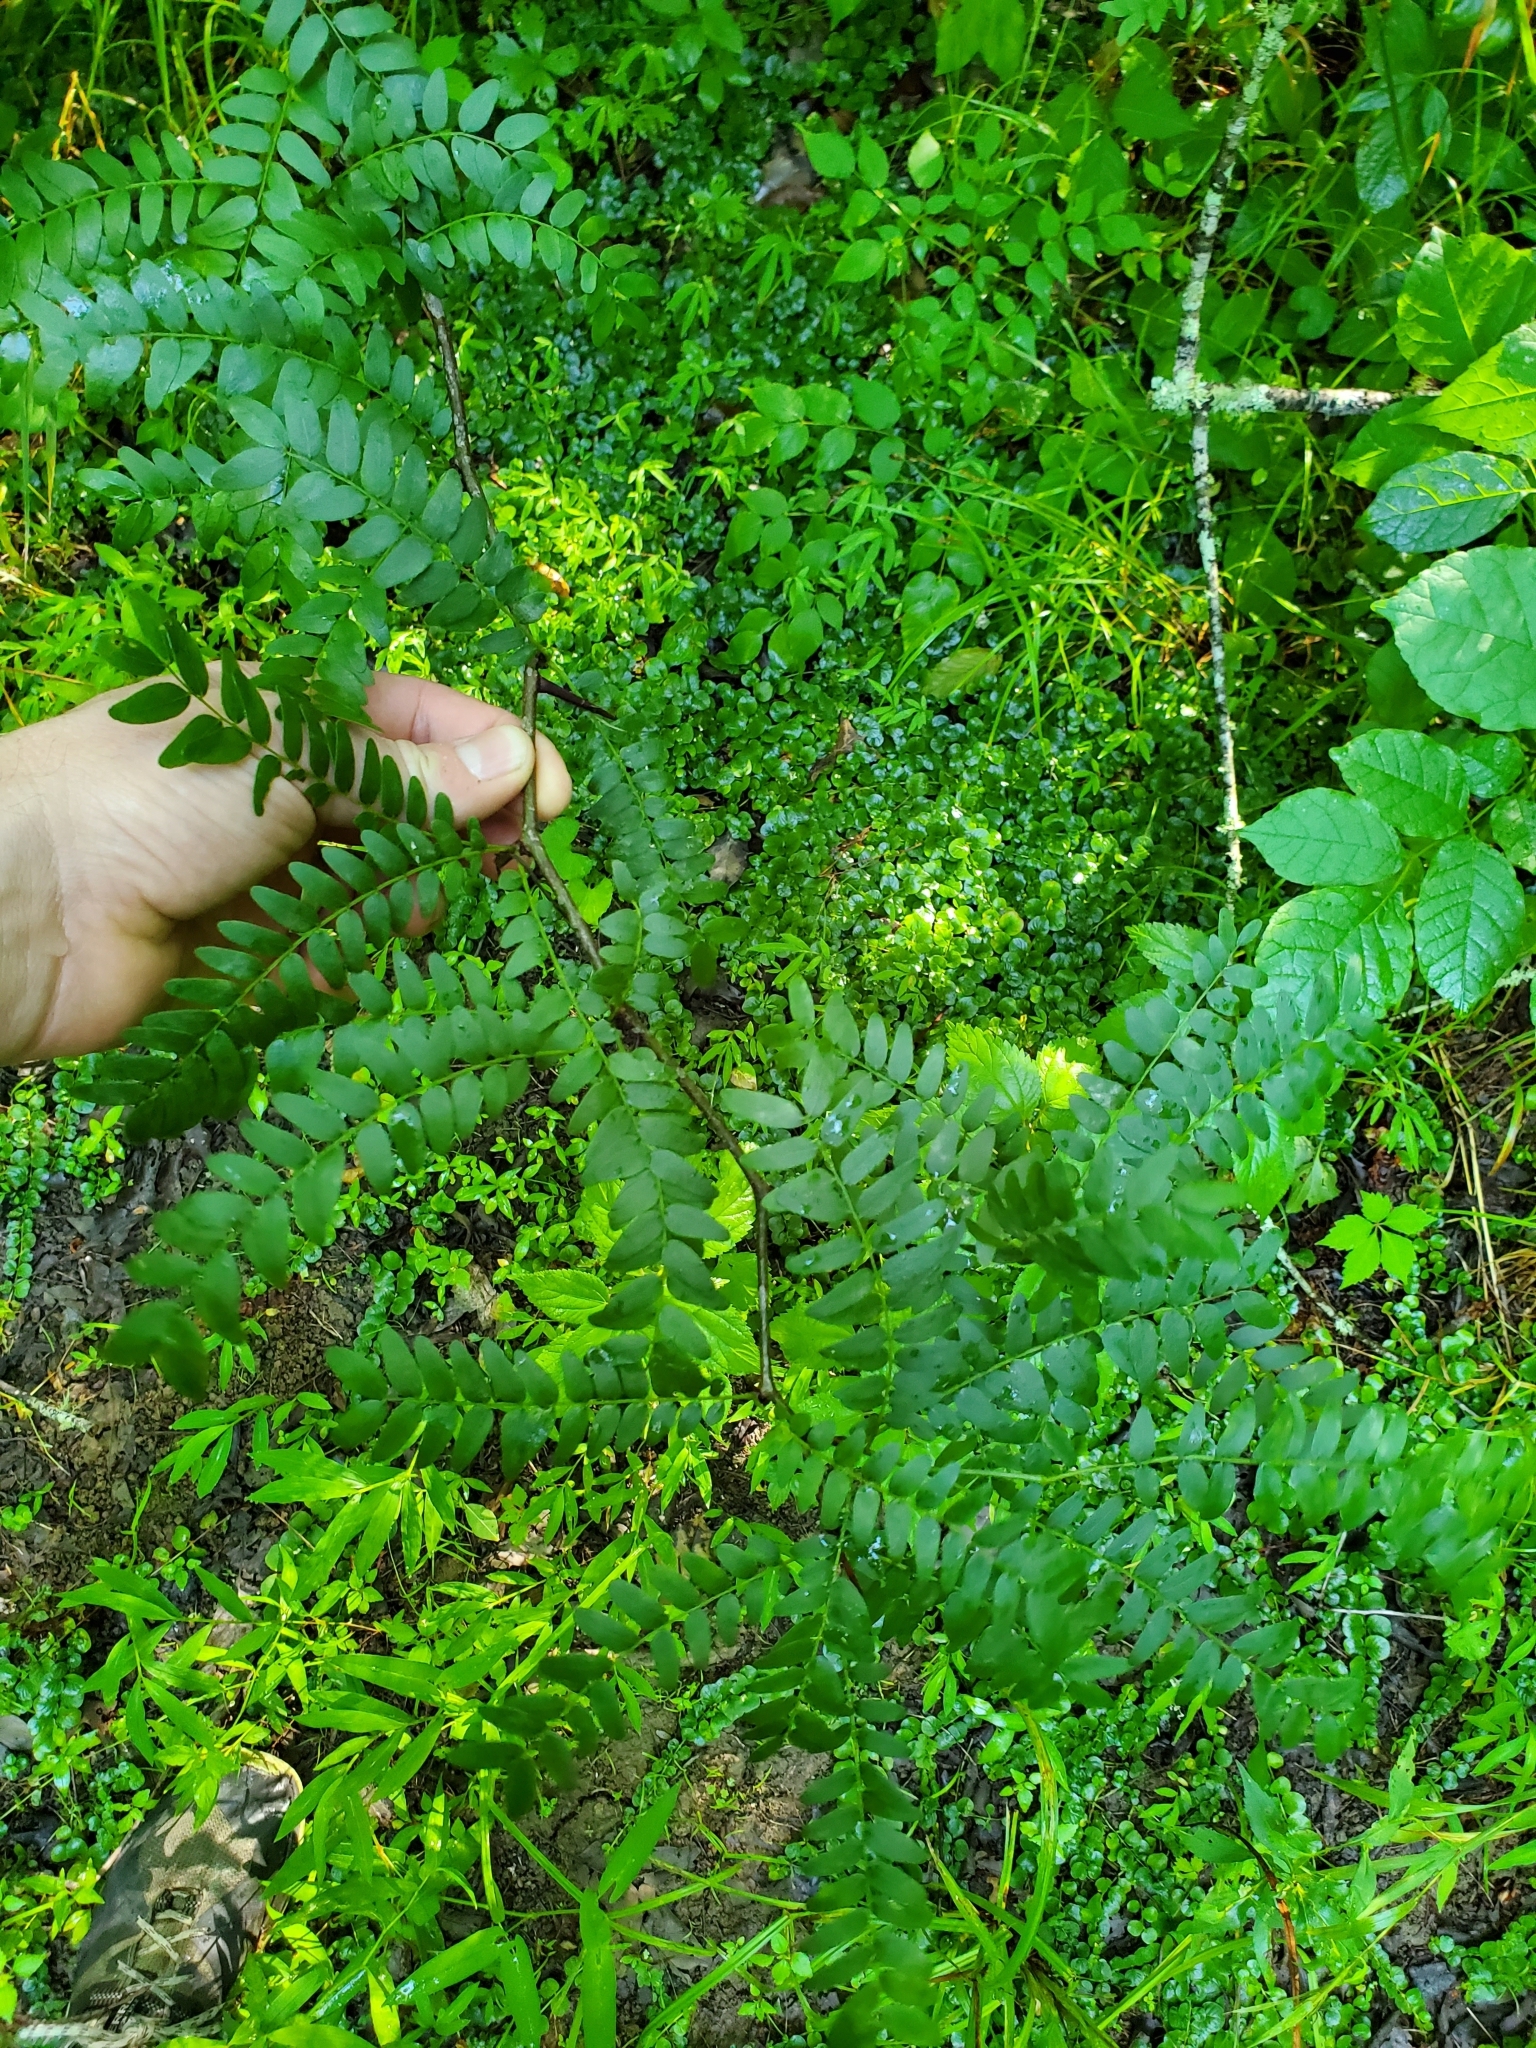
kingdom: Plantae
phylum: Tracheophyta
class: Magnoliopsida
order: Fabales
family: Fabaceae
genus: Gleditsia
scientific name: Gleditsia triacanthos
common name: Common honeylocust
